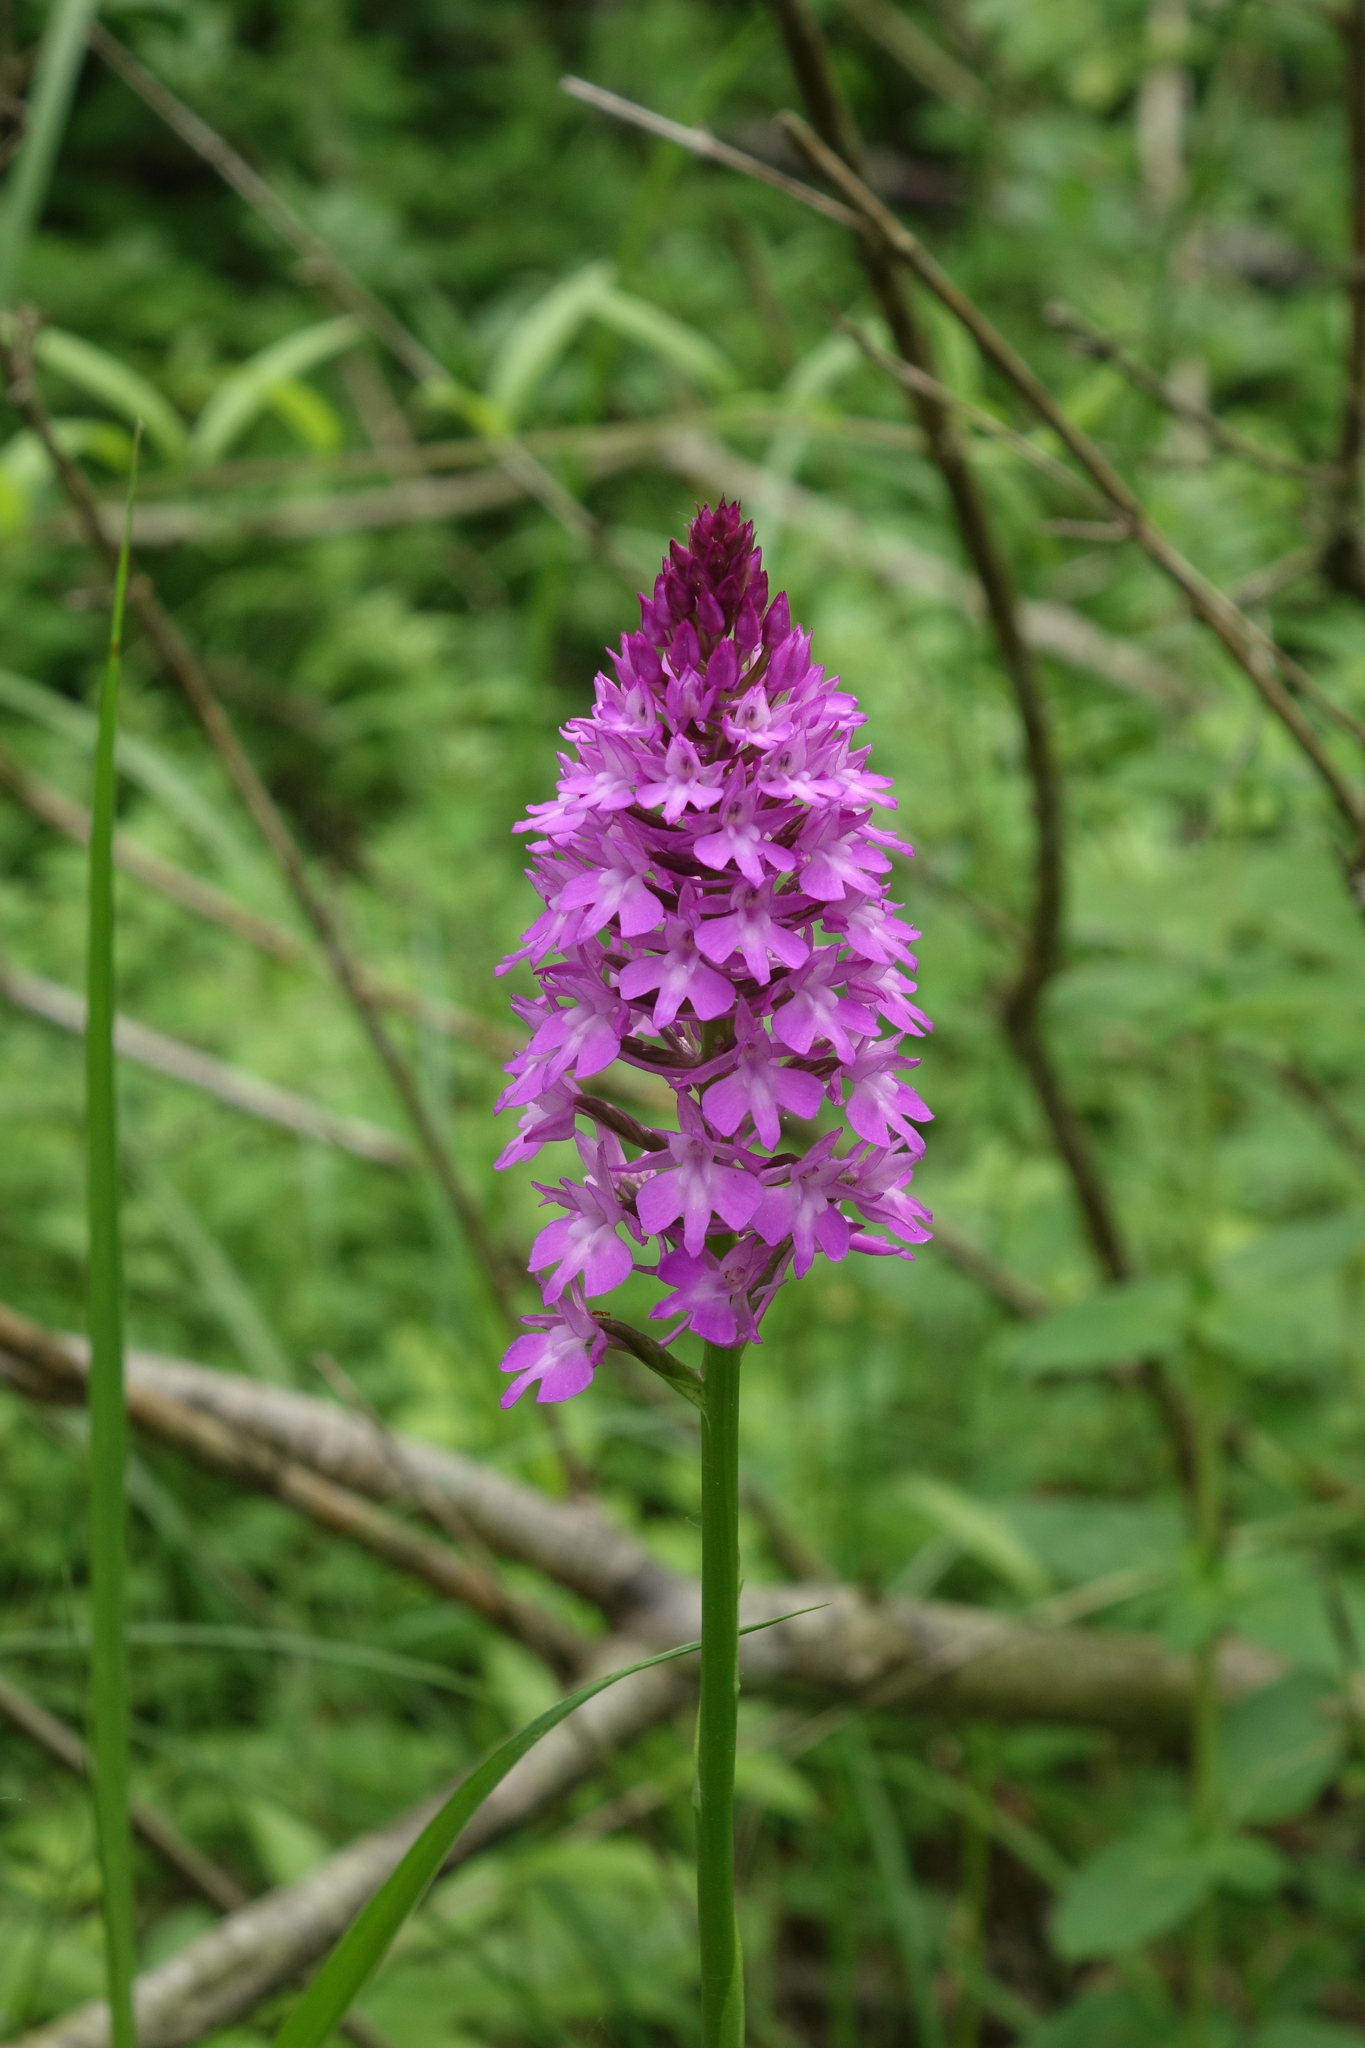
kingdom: Plantae
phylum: Tracheophyta
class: Liliopsida
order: Asparagales
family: Orchidaceae
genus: Anacamptis
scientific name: Anacamptis pyramidalis
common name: Pyramidal orchid
